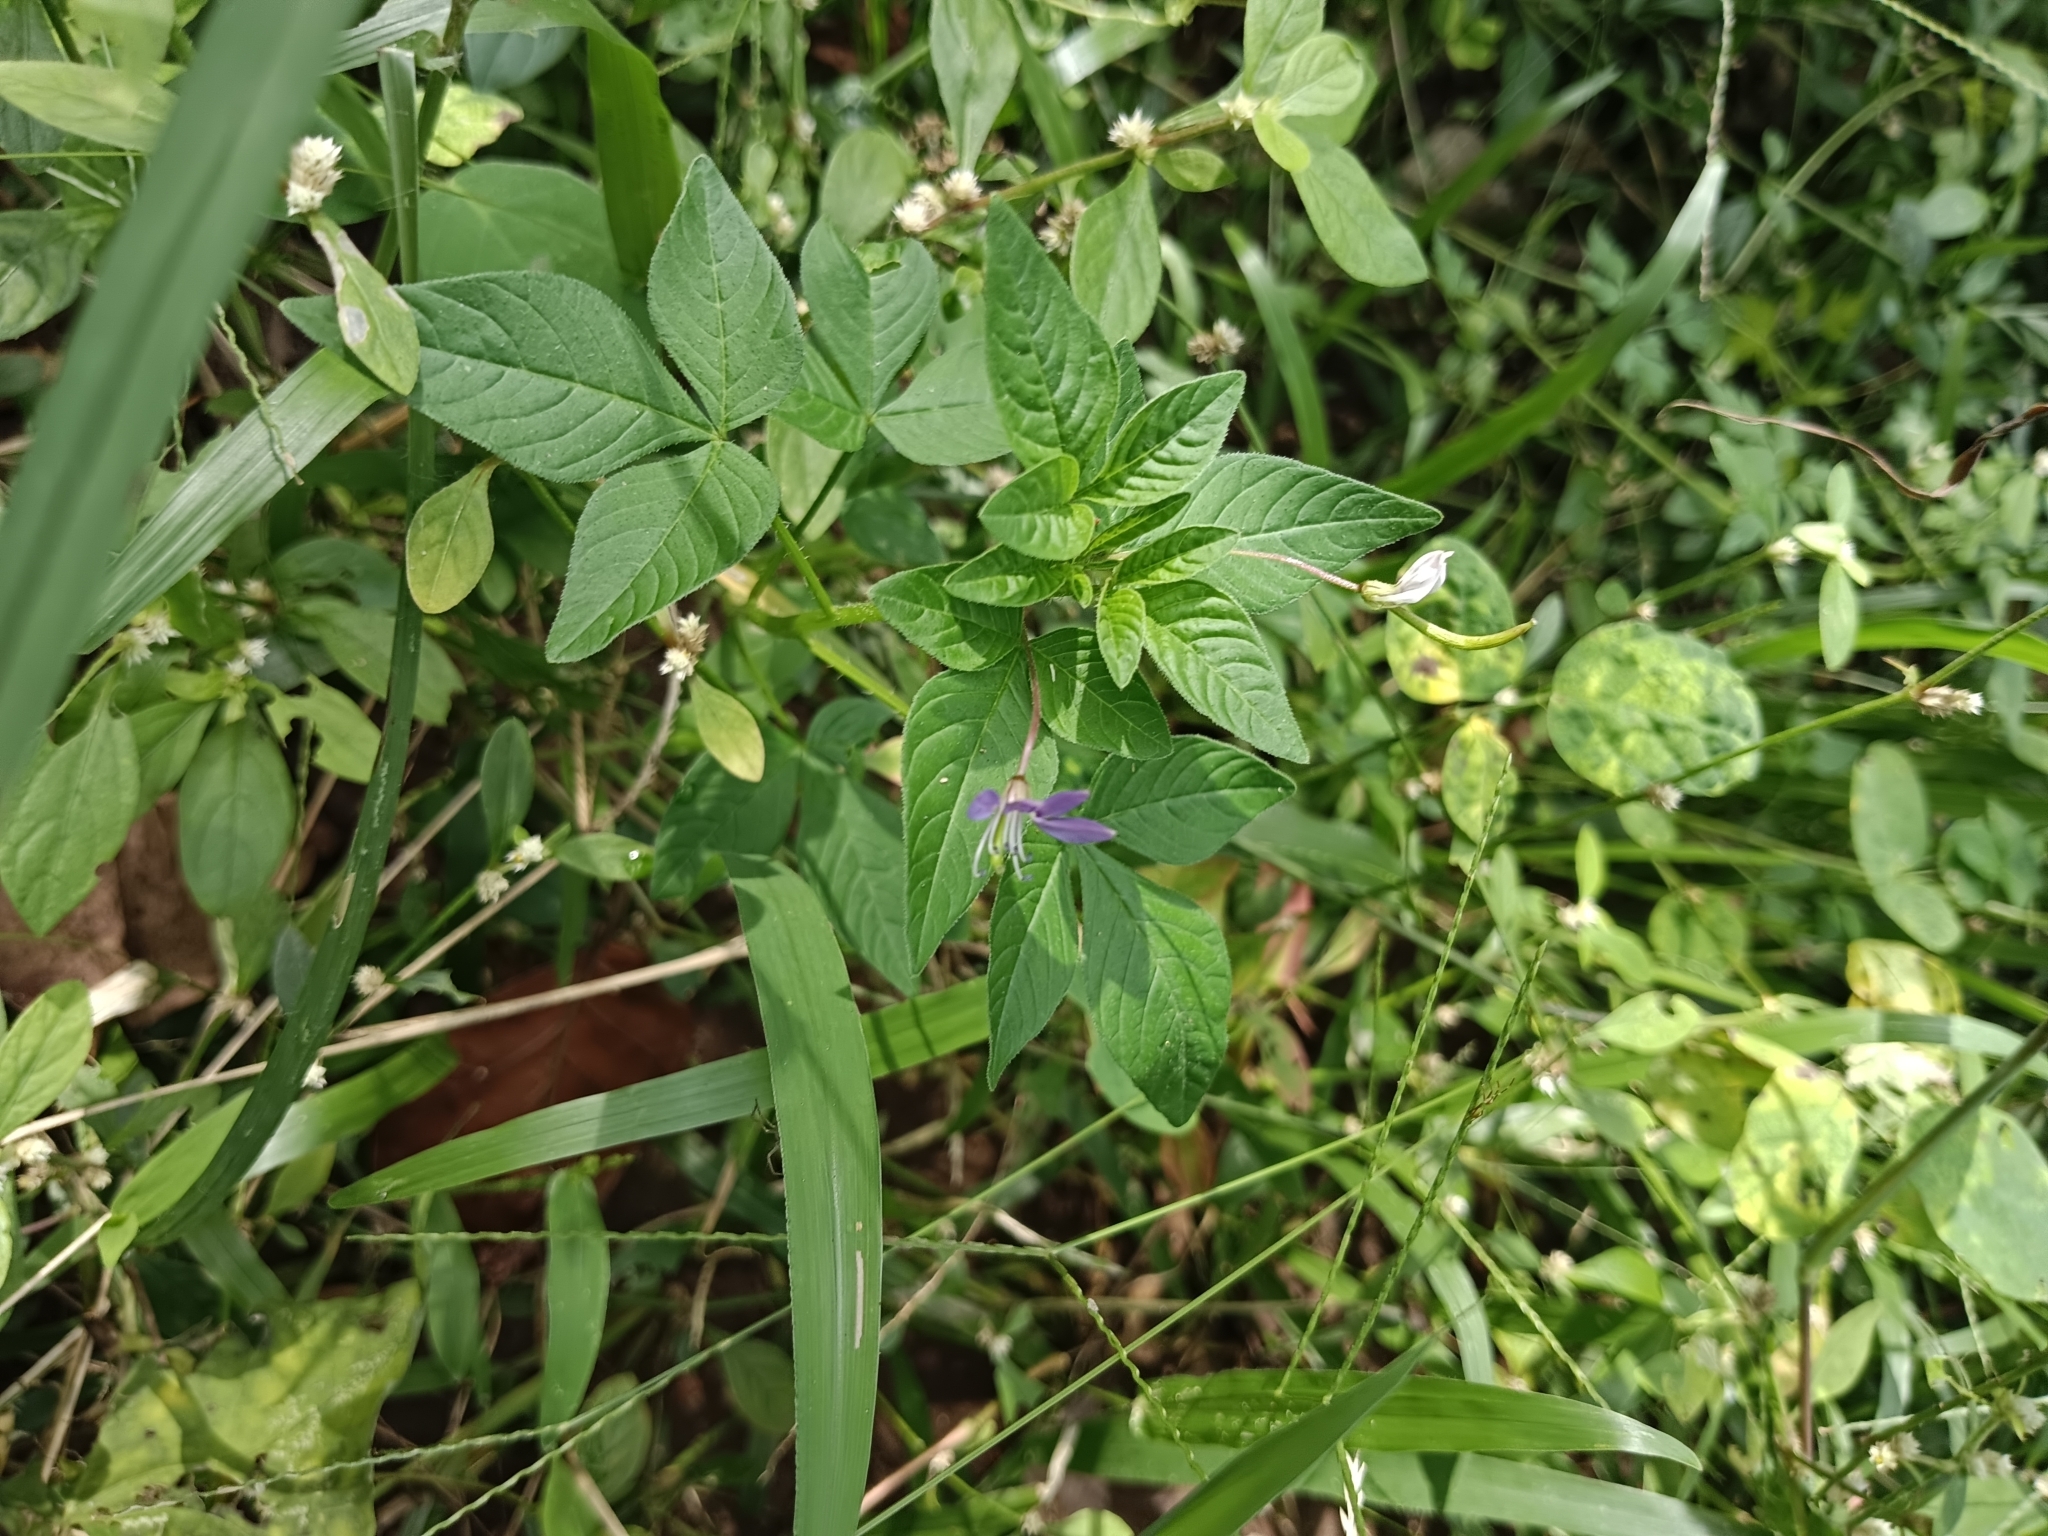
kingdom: Plantae
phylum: Tracheophyta
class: Magnoliopsida
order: Brassicales
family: Cleomaceae
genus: Sieruela
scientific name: Sieruela rutidosperma
